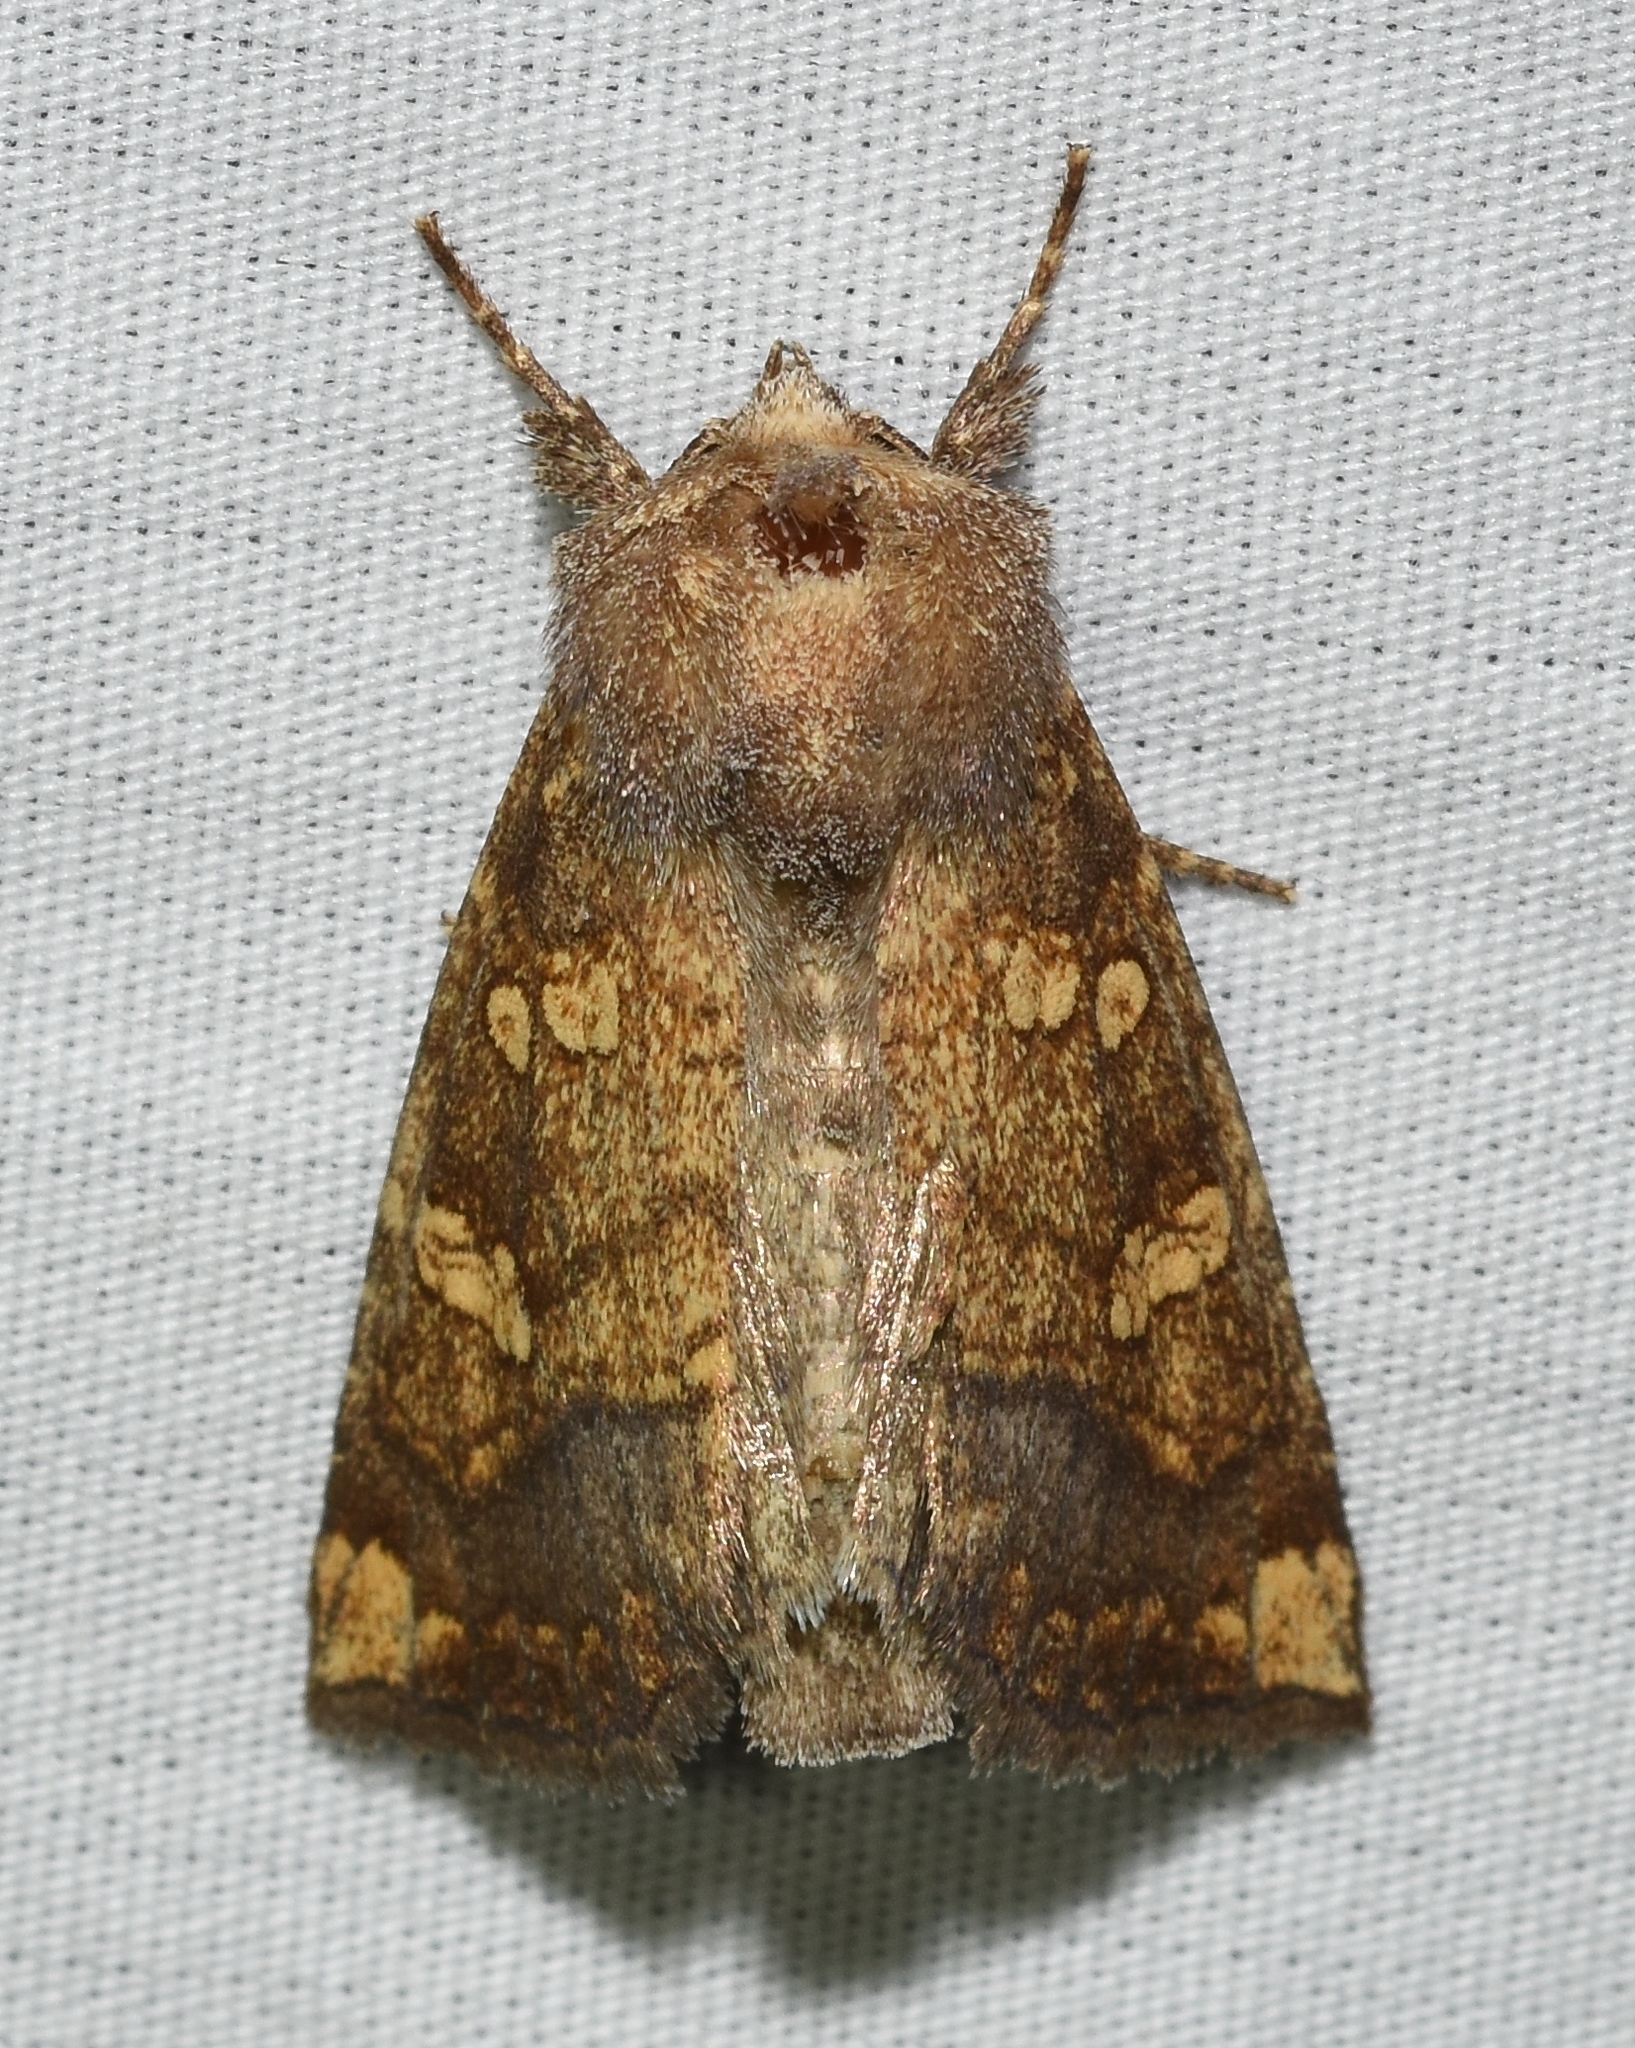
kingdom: Animalia
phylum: Arthropoda
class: Insecta
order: Lepidoptera
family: Noctuidae
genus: Papaipema
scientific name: Papaipema cataphracta
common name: Burdock borer
